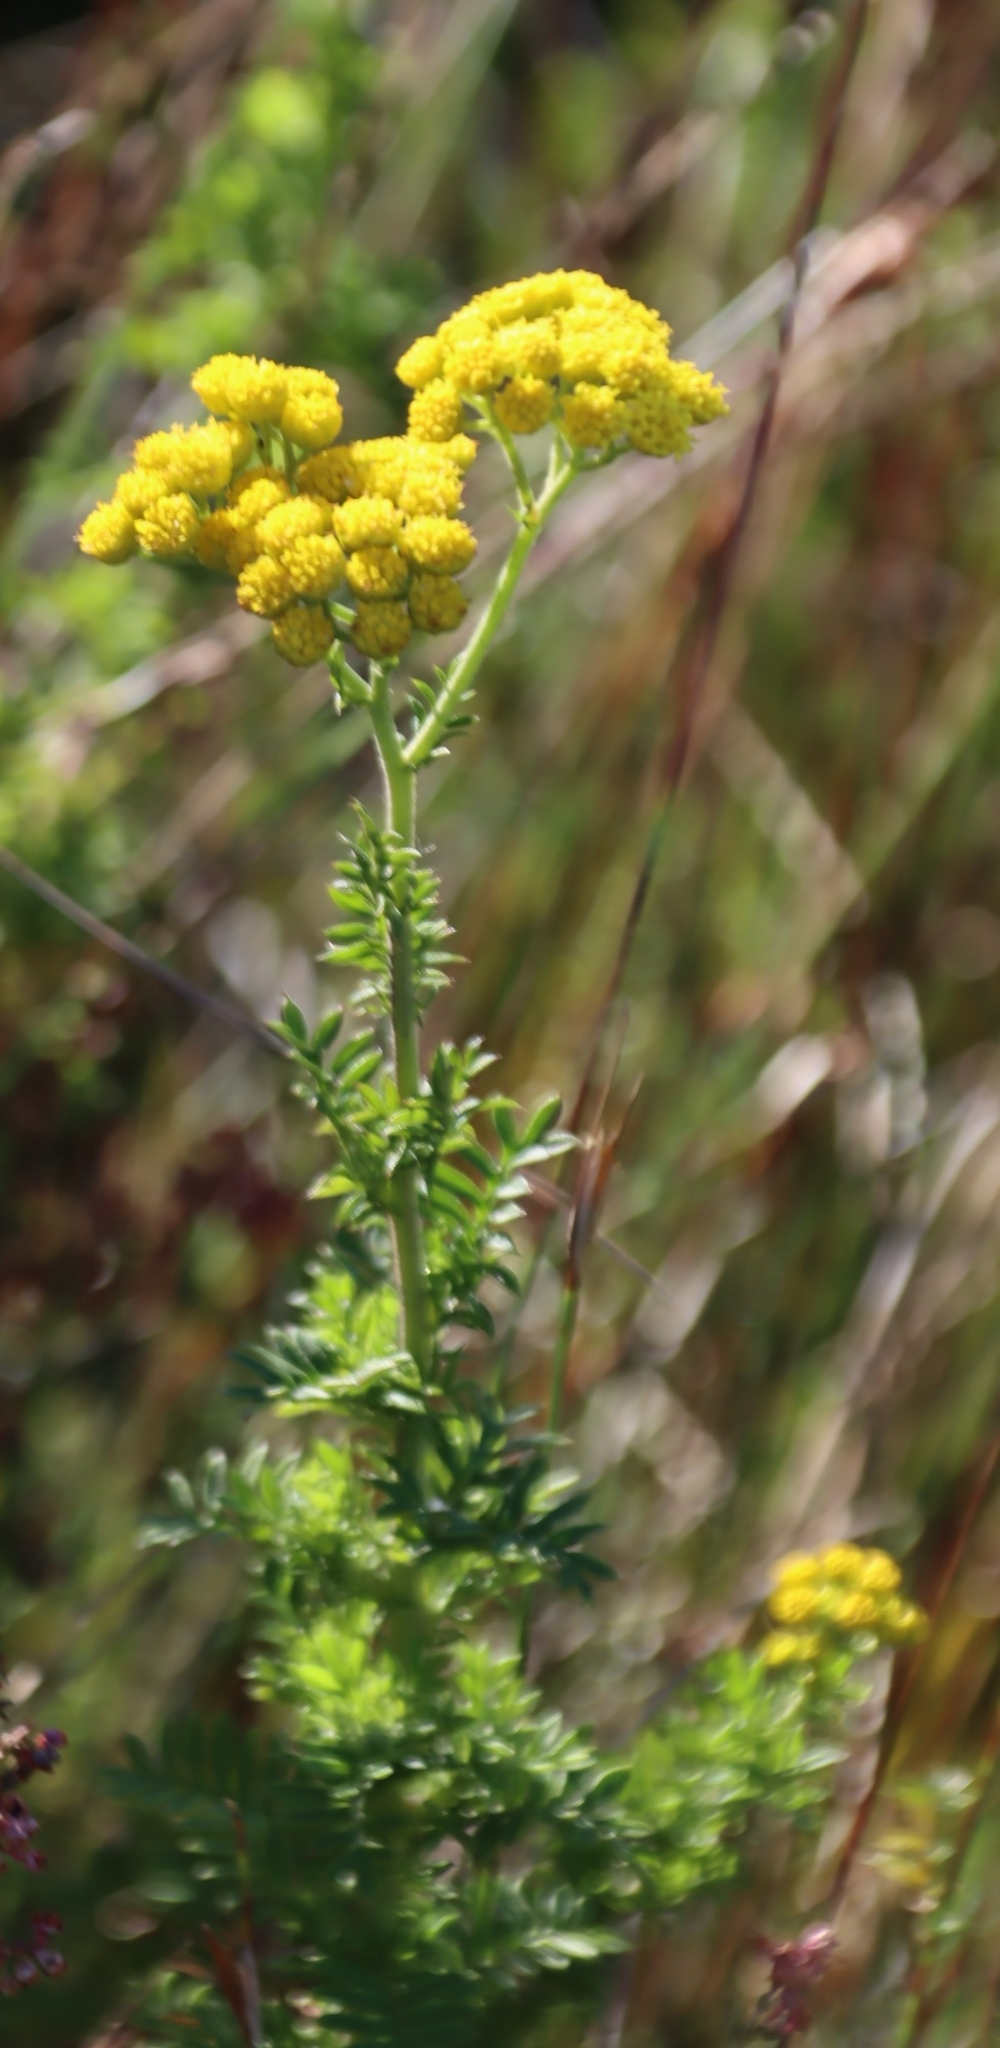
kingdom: Plantae
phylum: Tracheophyta
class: Magnoliopsida
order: Asterales
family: Asteraceae
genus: Hippia
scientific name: Hippia frutescens
